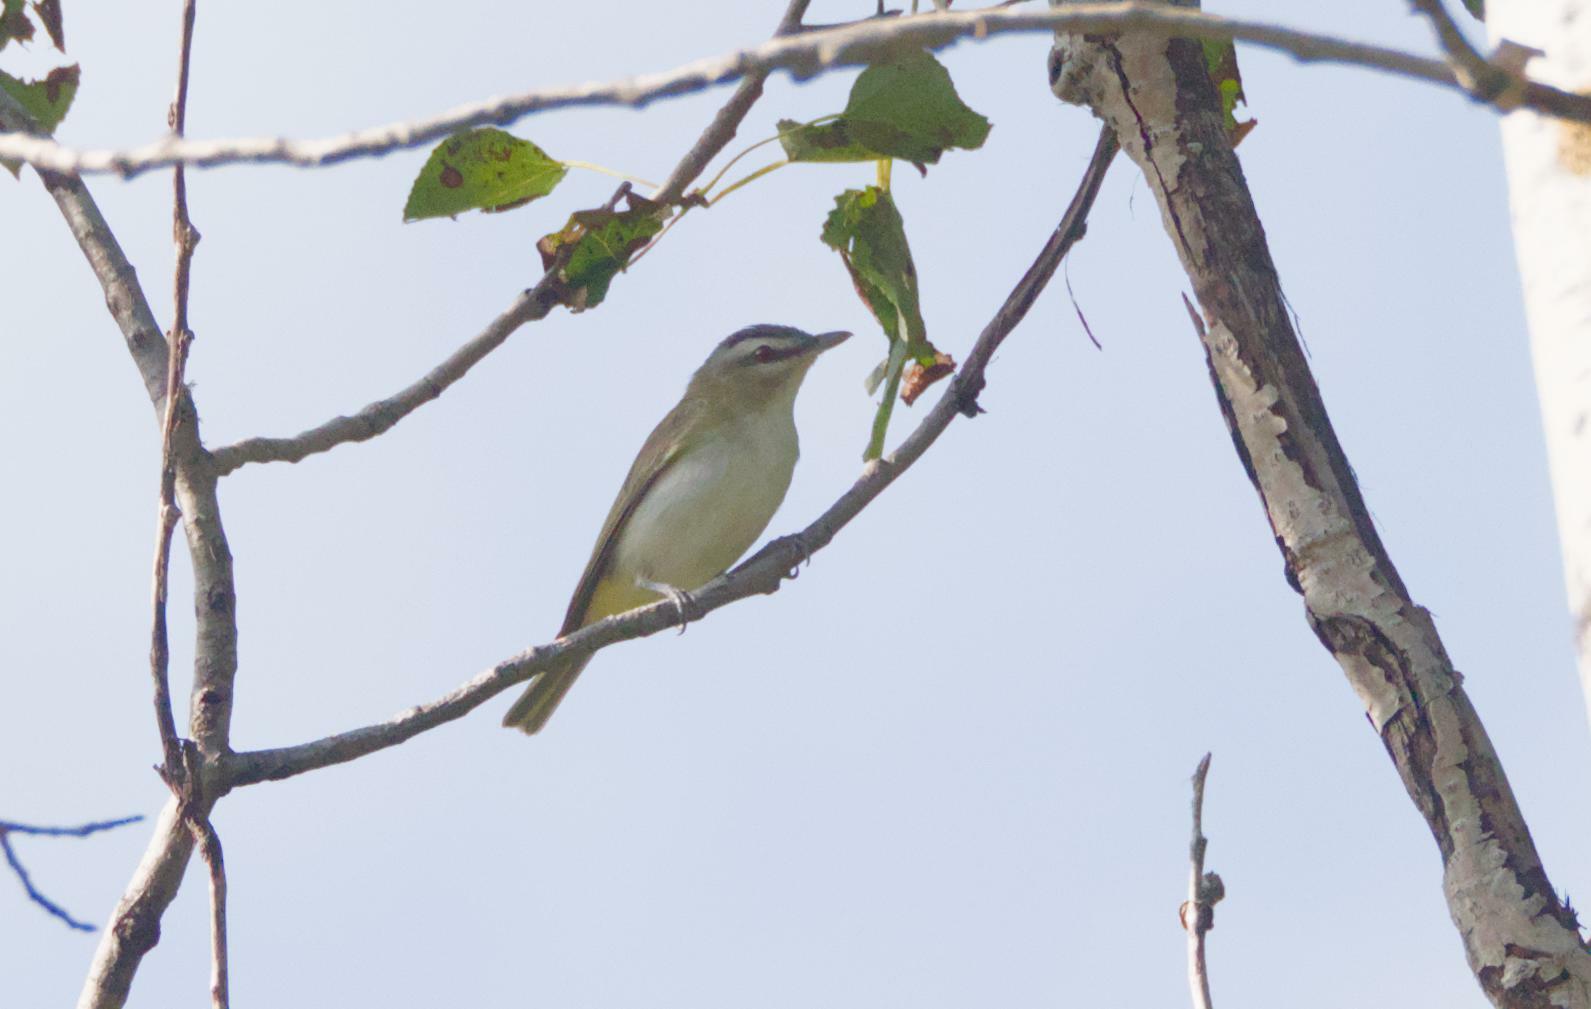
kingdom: Animalia
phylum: Chordata
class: Aves
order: Passeriformes
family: Vireonidae
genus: Vireo
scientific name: Vireo olivaceus
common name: Red-eyed vireo
